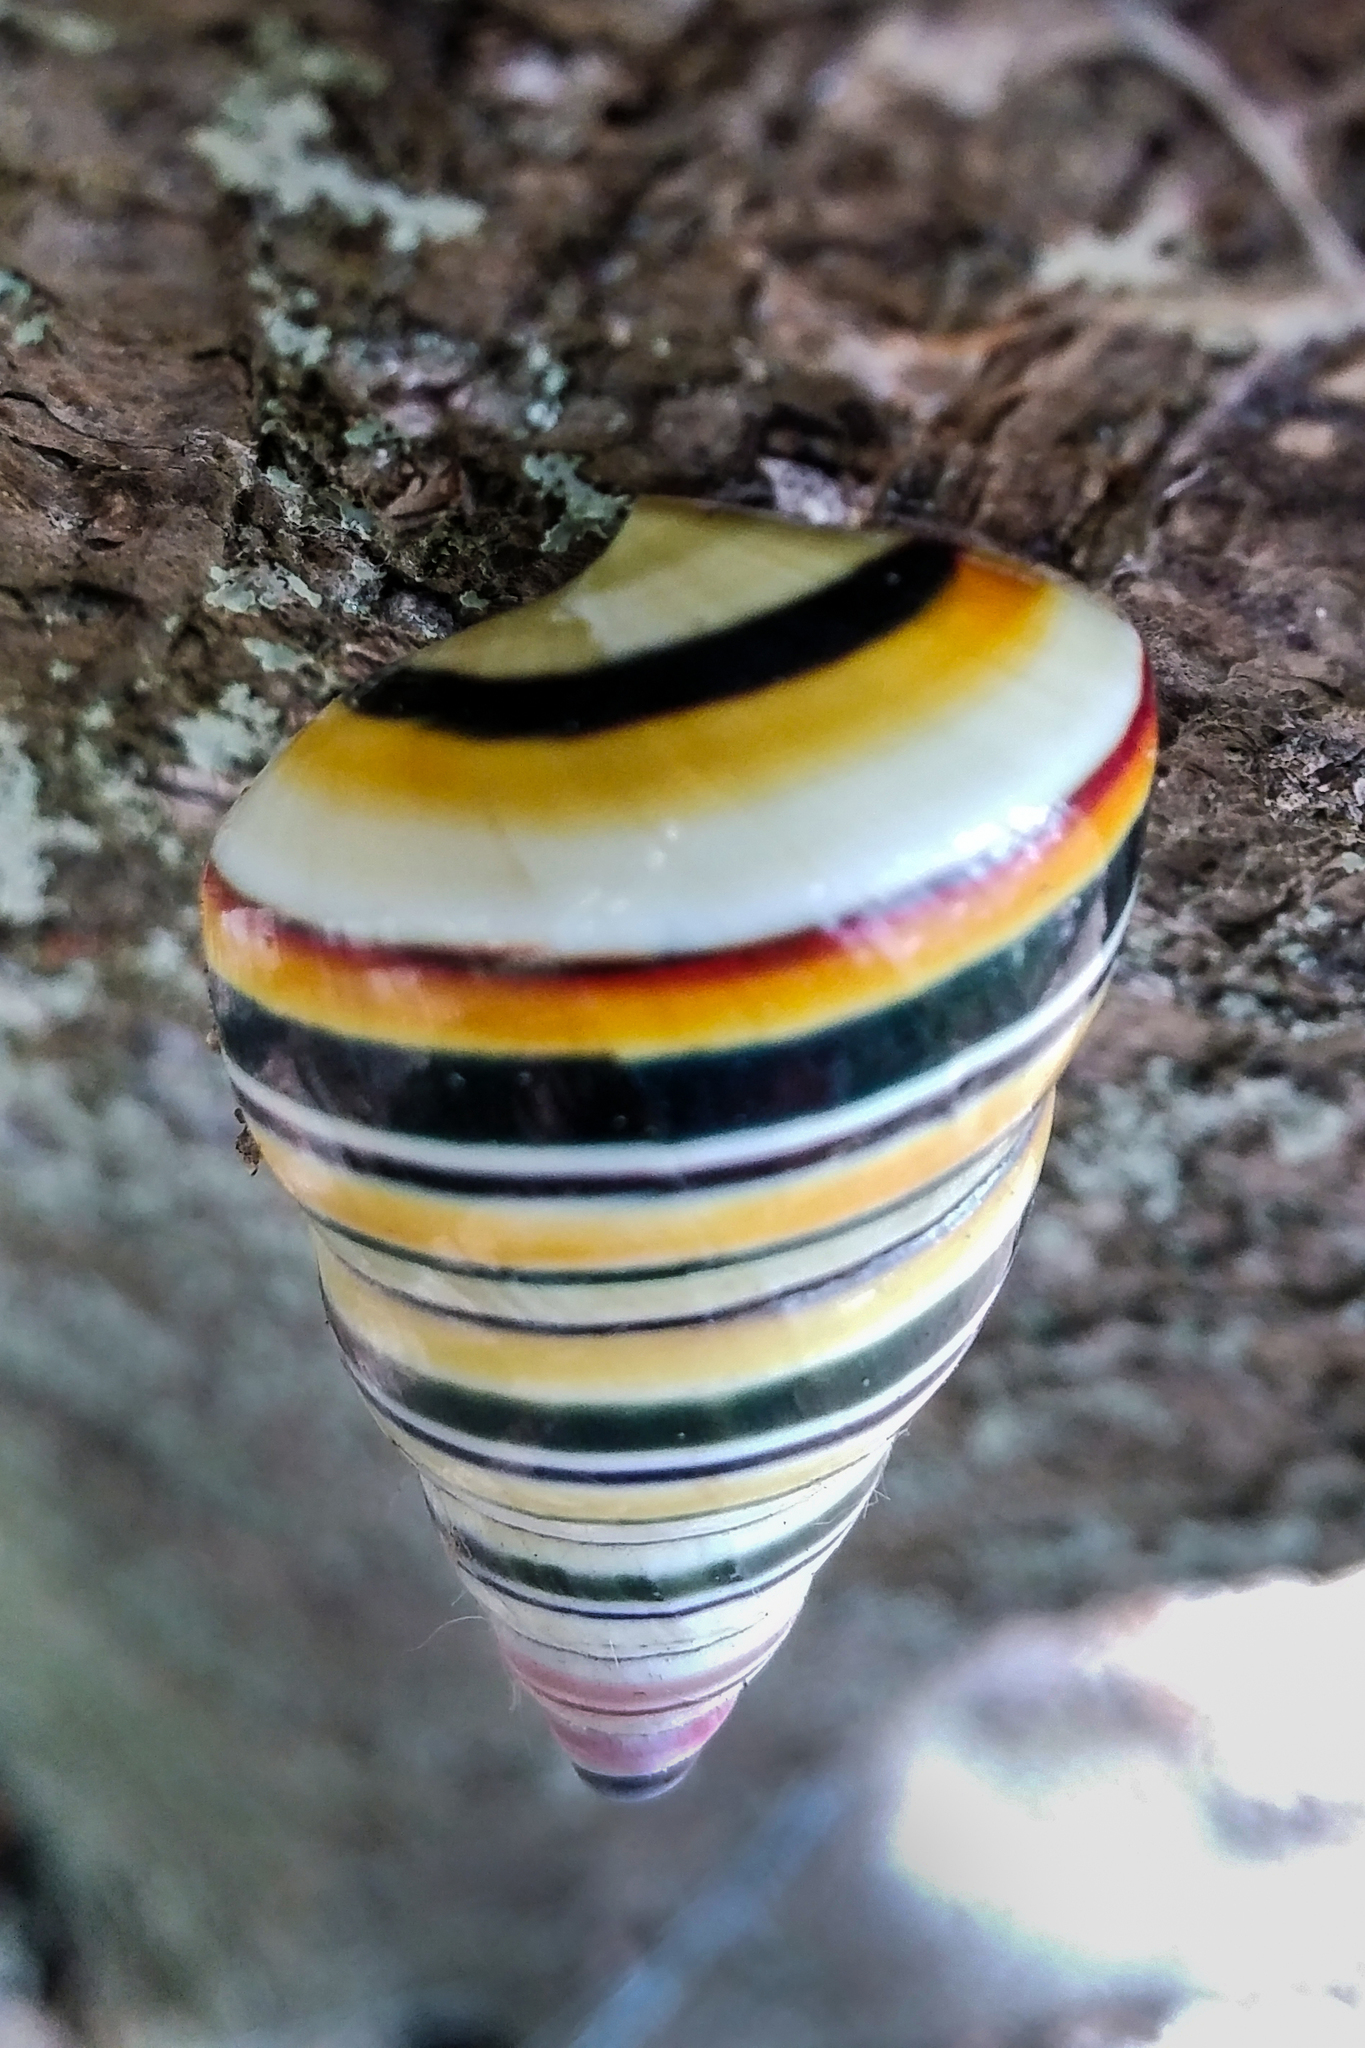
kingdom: Animalia
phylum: Mollusca
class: Gastropoda
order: Stylommatophora
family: Orthalicidae
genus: Liguus
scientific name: Liguus virgineus
